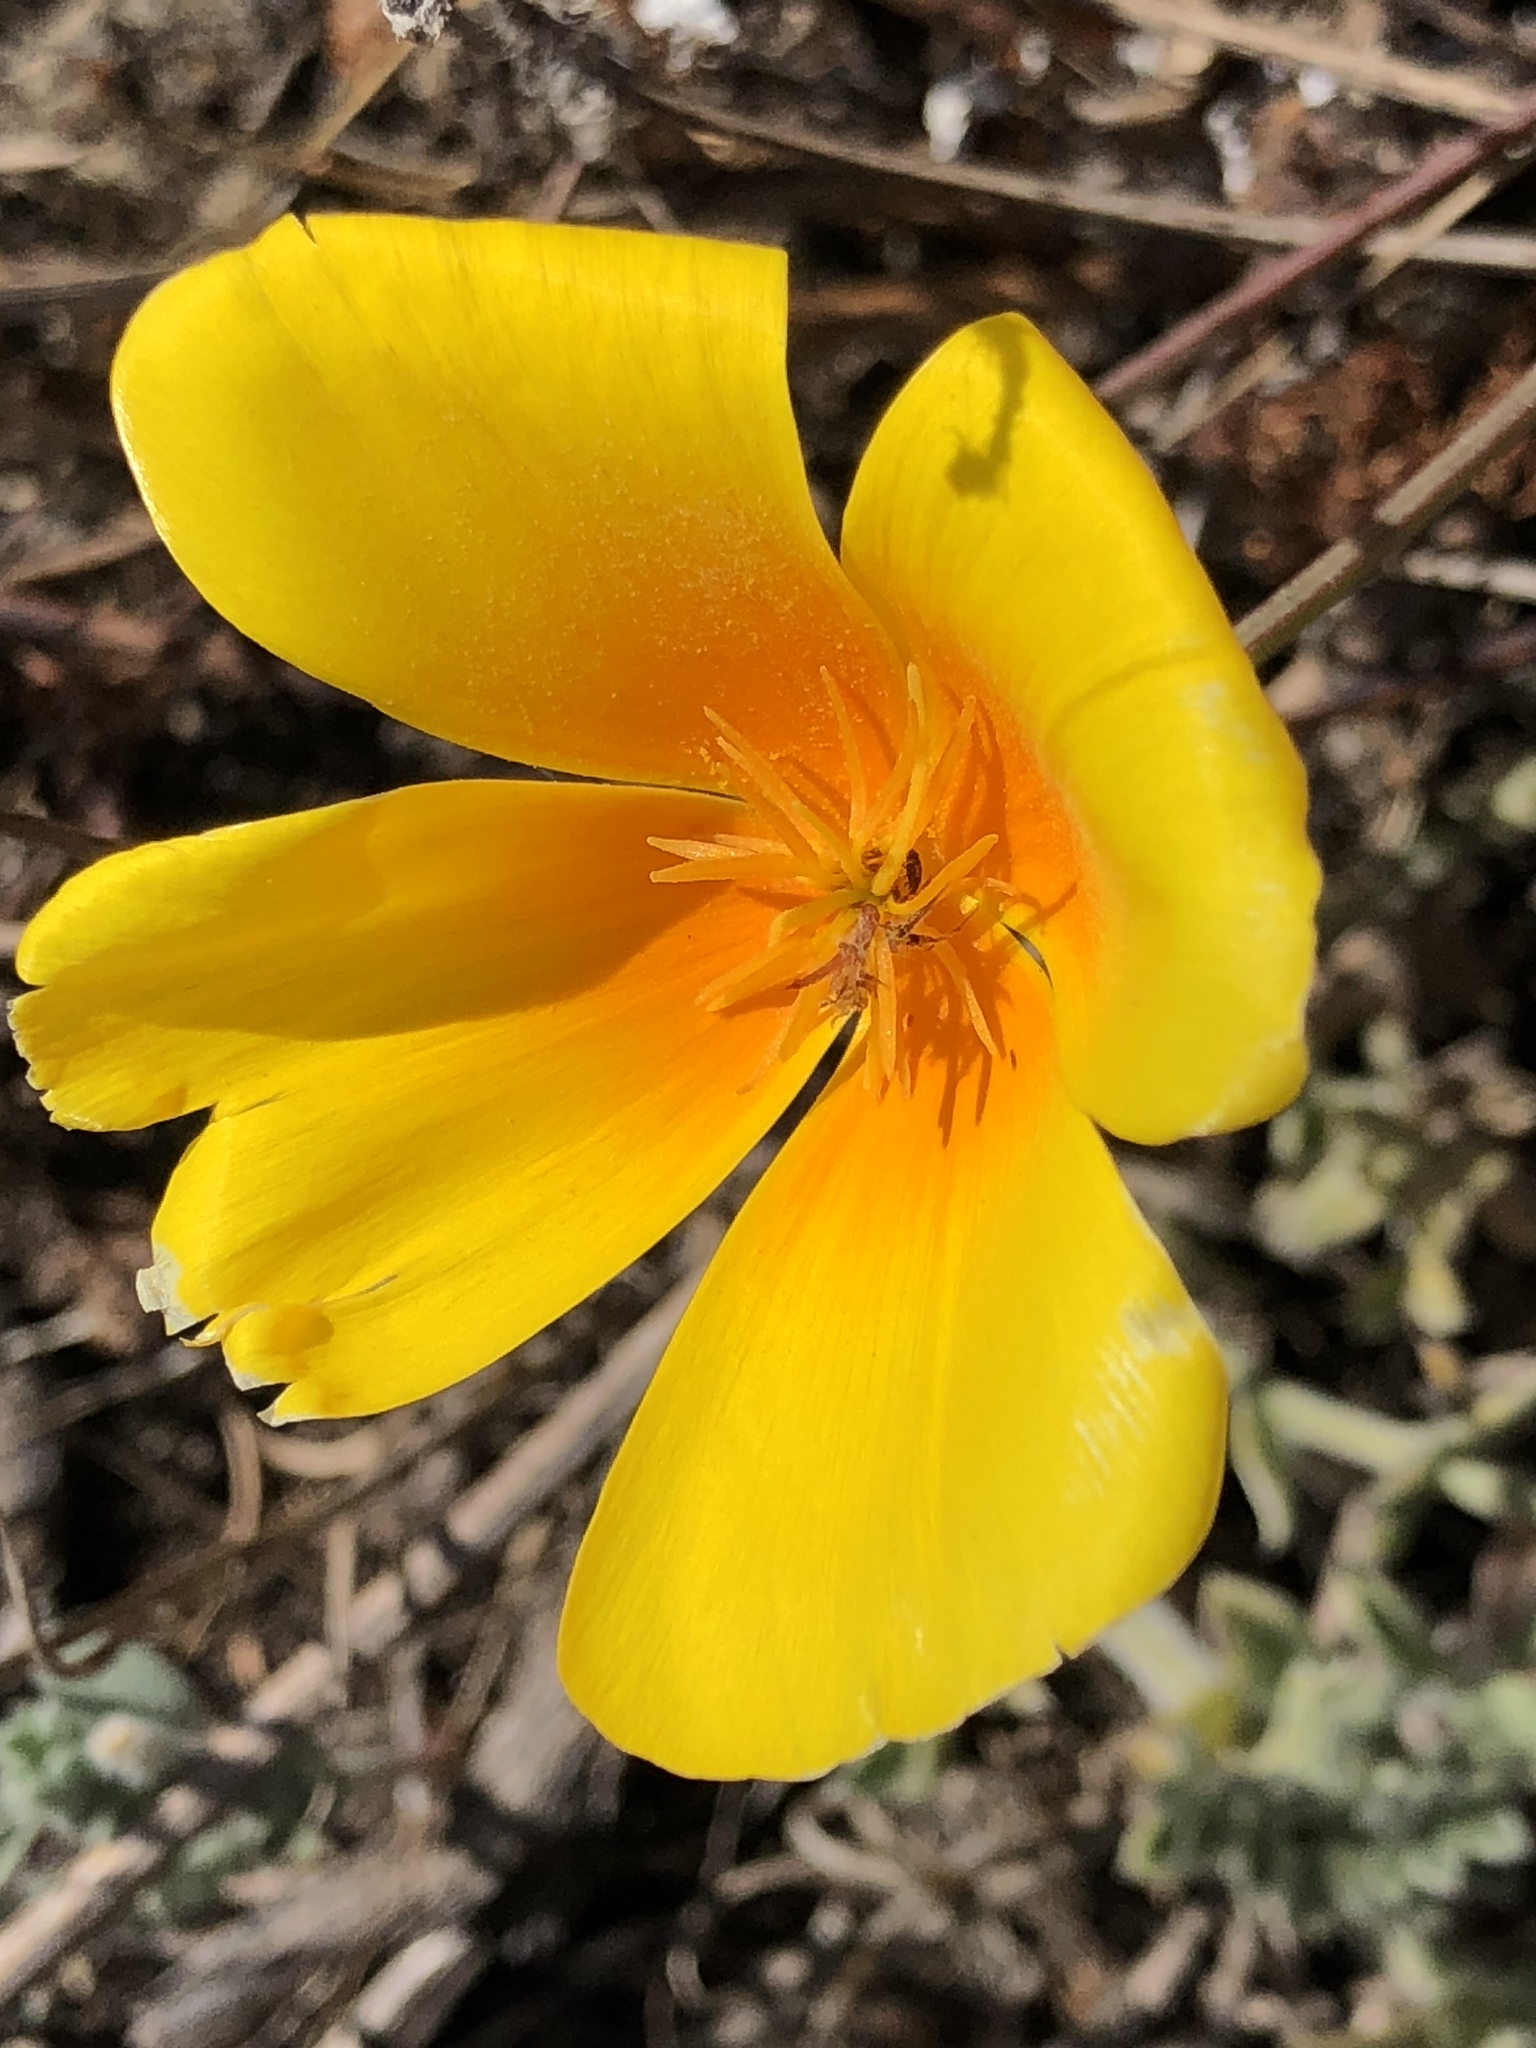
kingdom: Plantae
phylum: Tracheophyta
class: Magnoliopsida
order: Ranunculales
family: Papaveraceae
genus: Eschscholzia
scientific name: Eschscholzia californica
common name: California poppy
